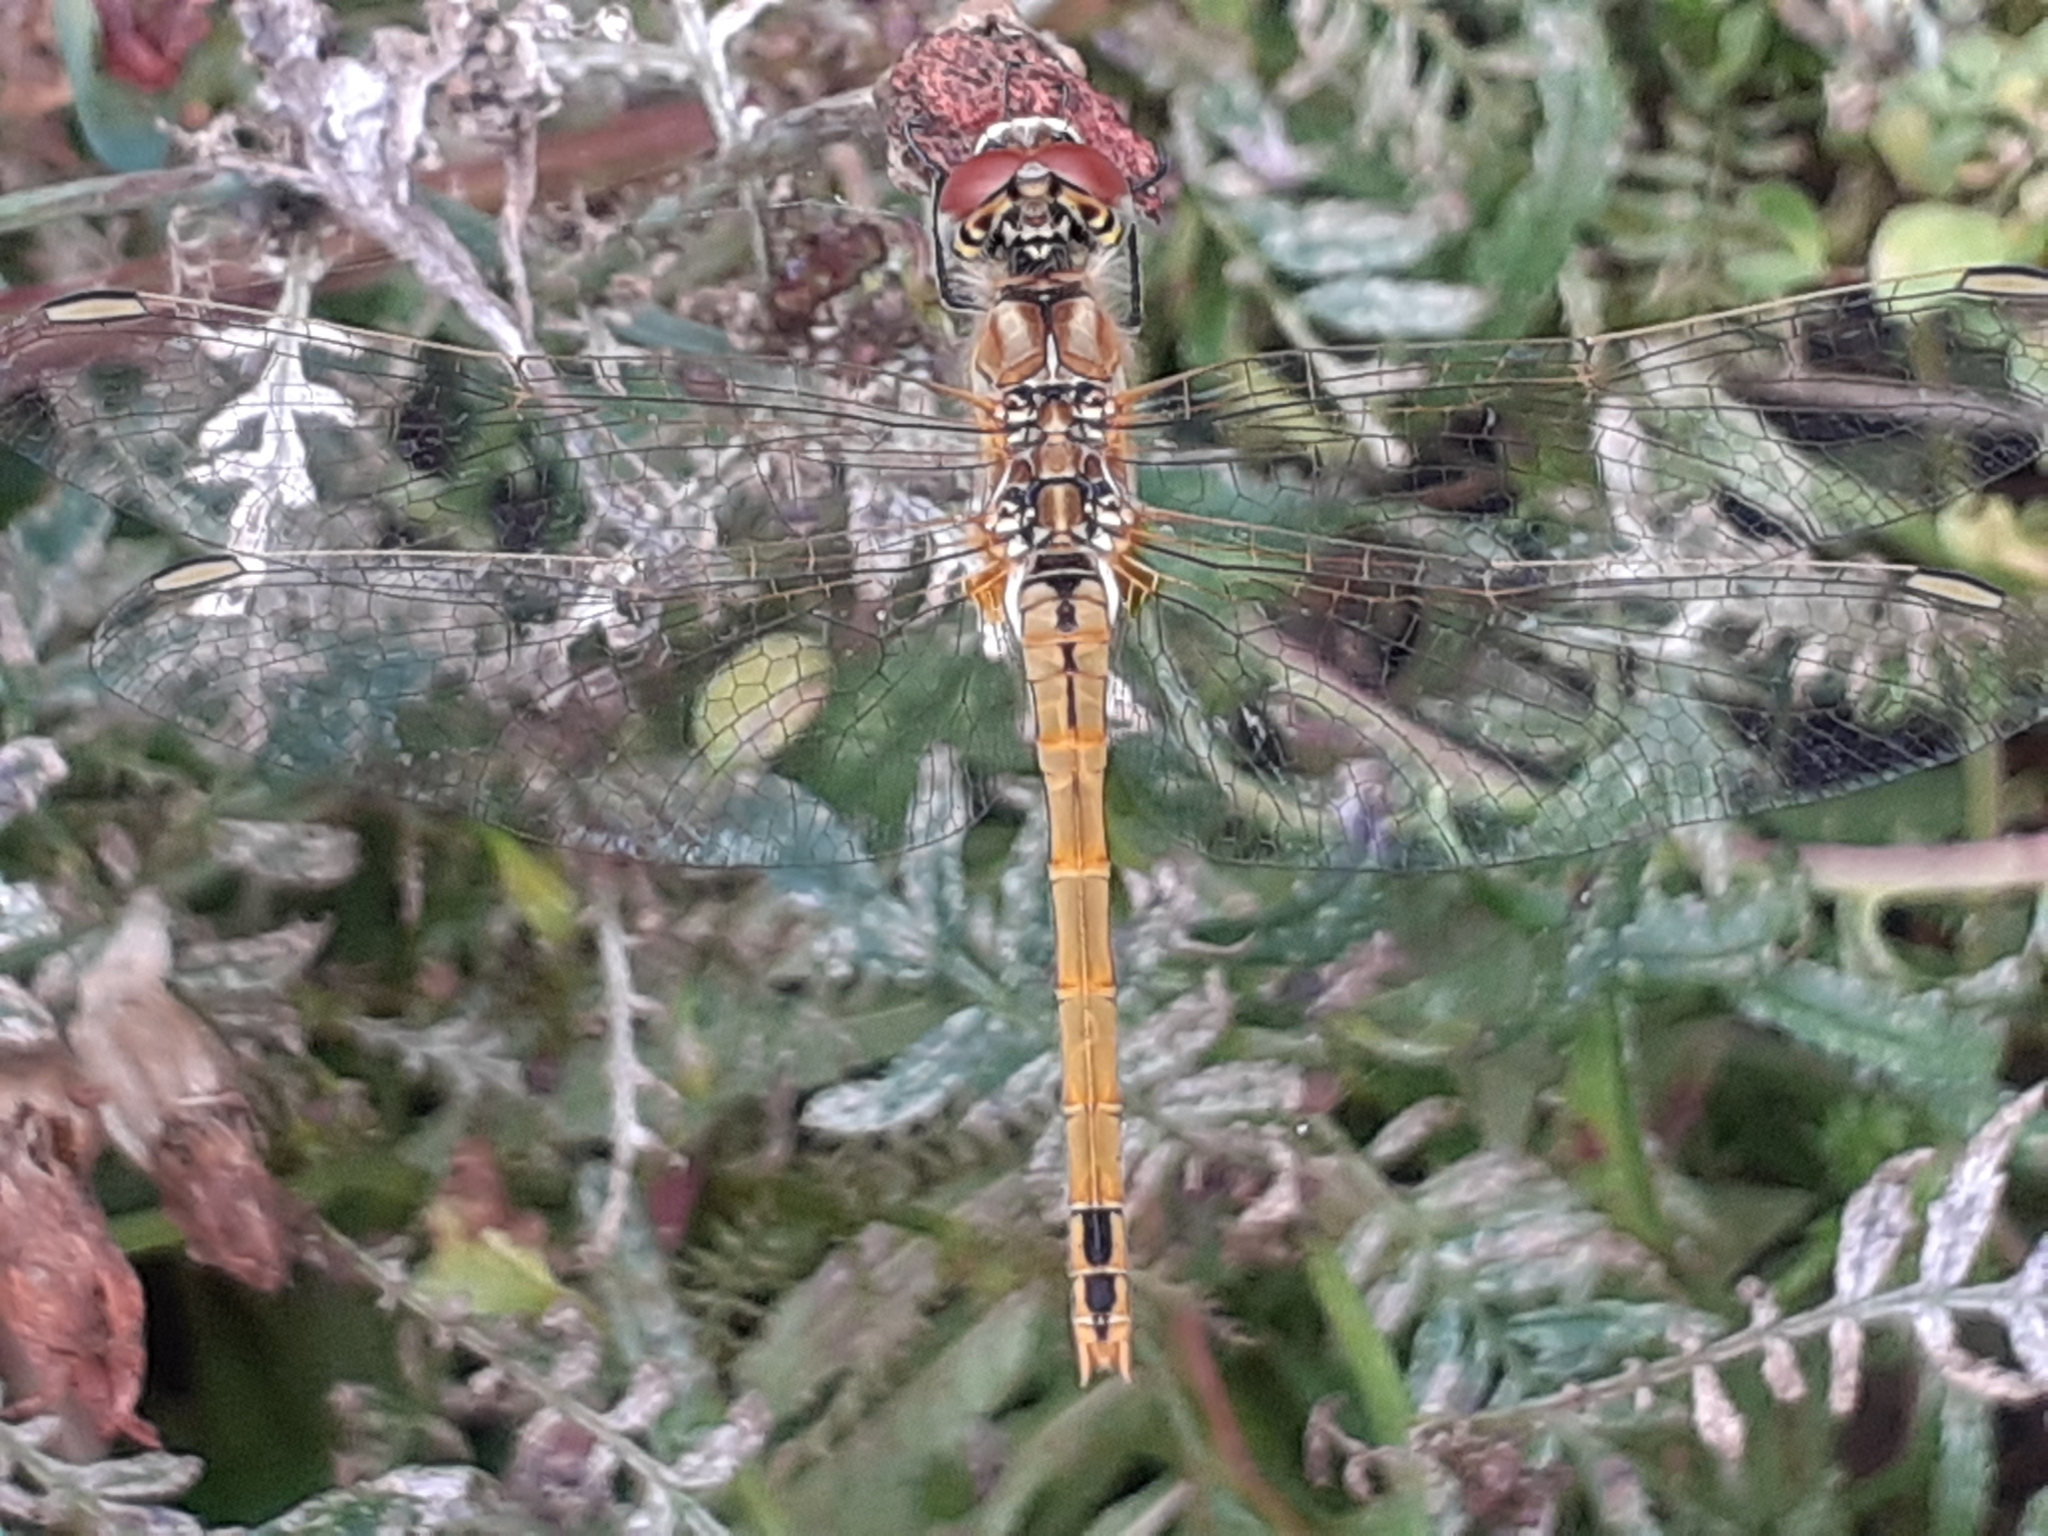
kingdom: Animalia
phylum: Arthropoda
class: Insecta
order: Odonata
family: Libellulidae
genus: Sympetrum
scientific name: Sympetrum fonscolombii
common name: Red-veined darter
